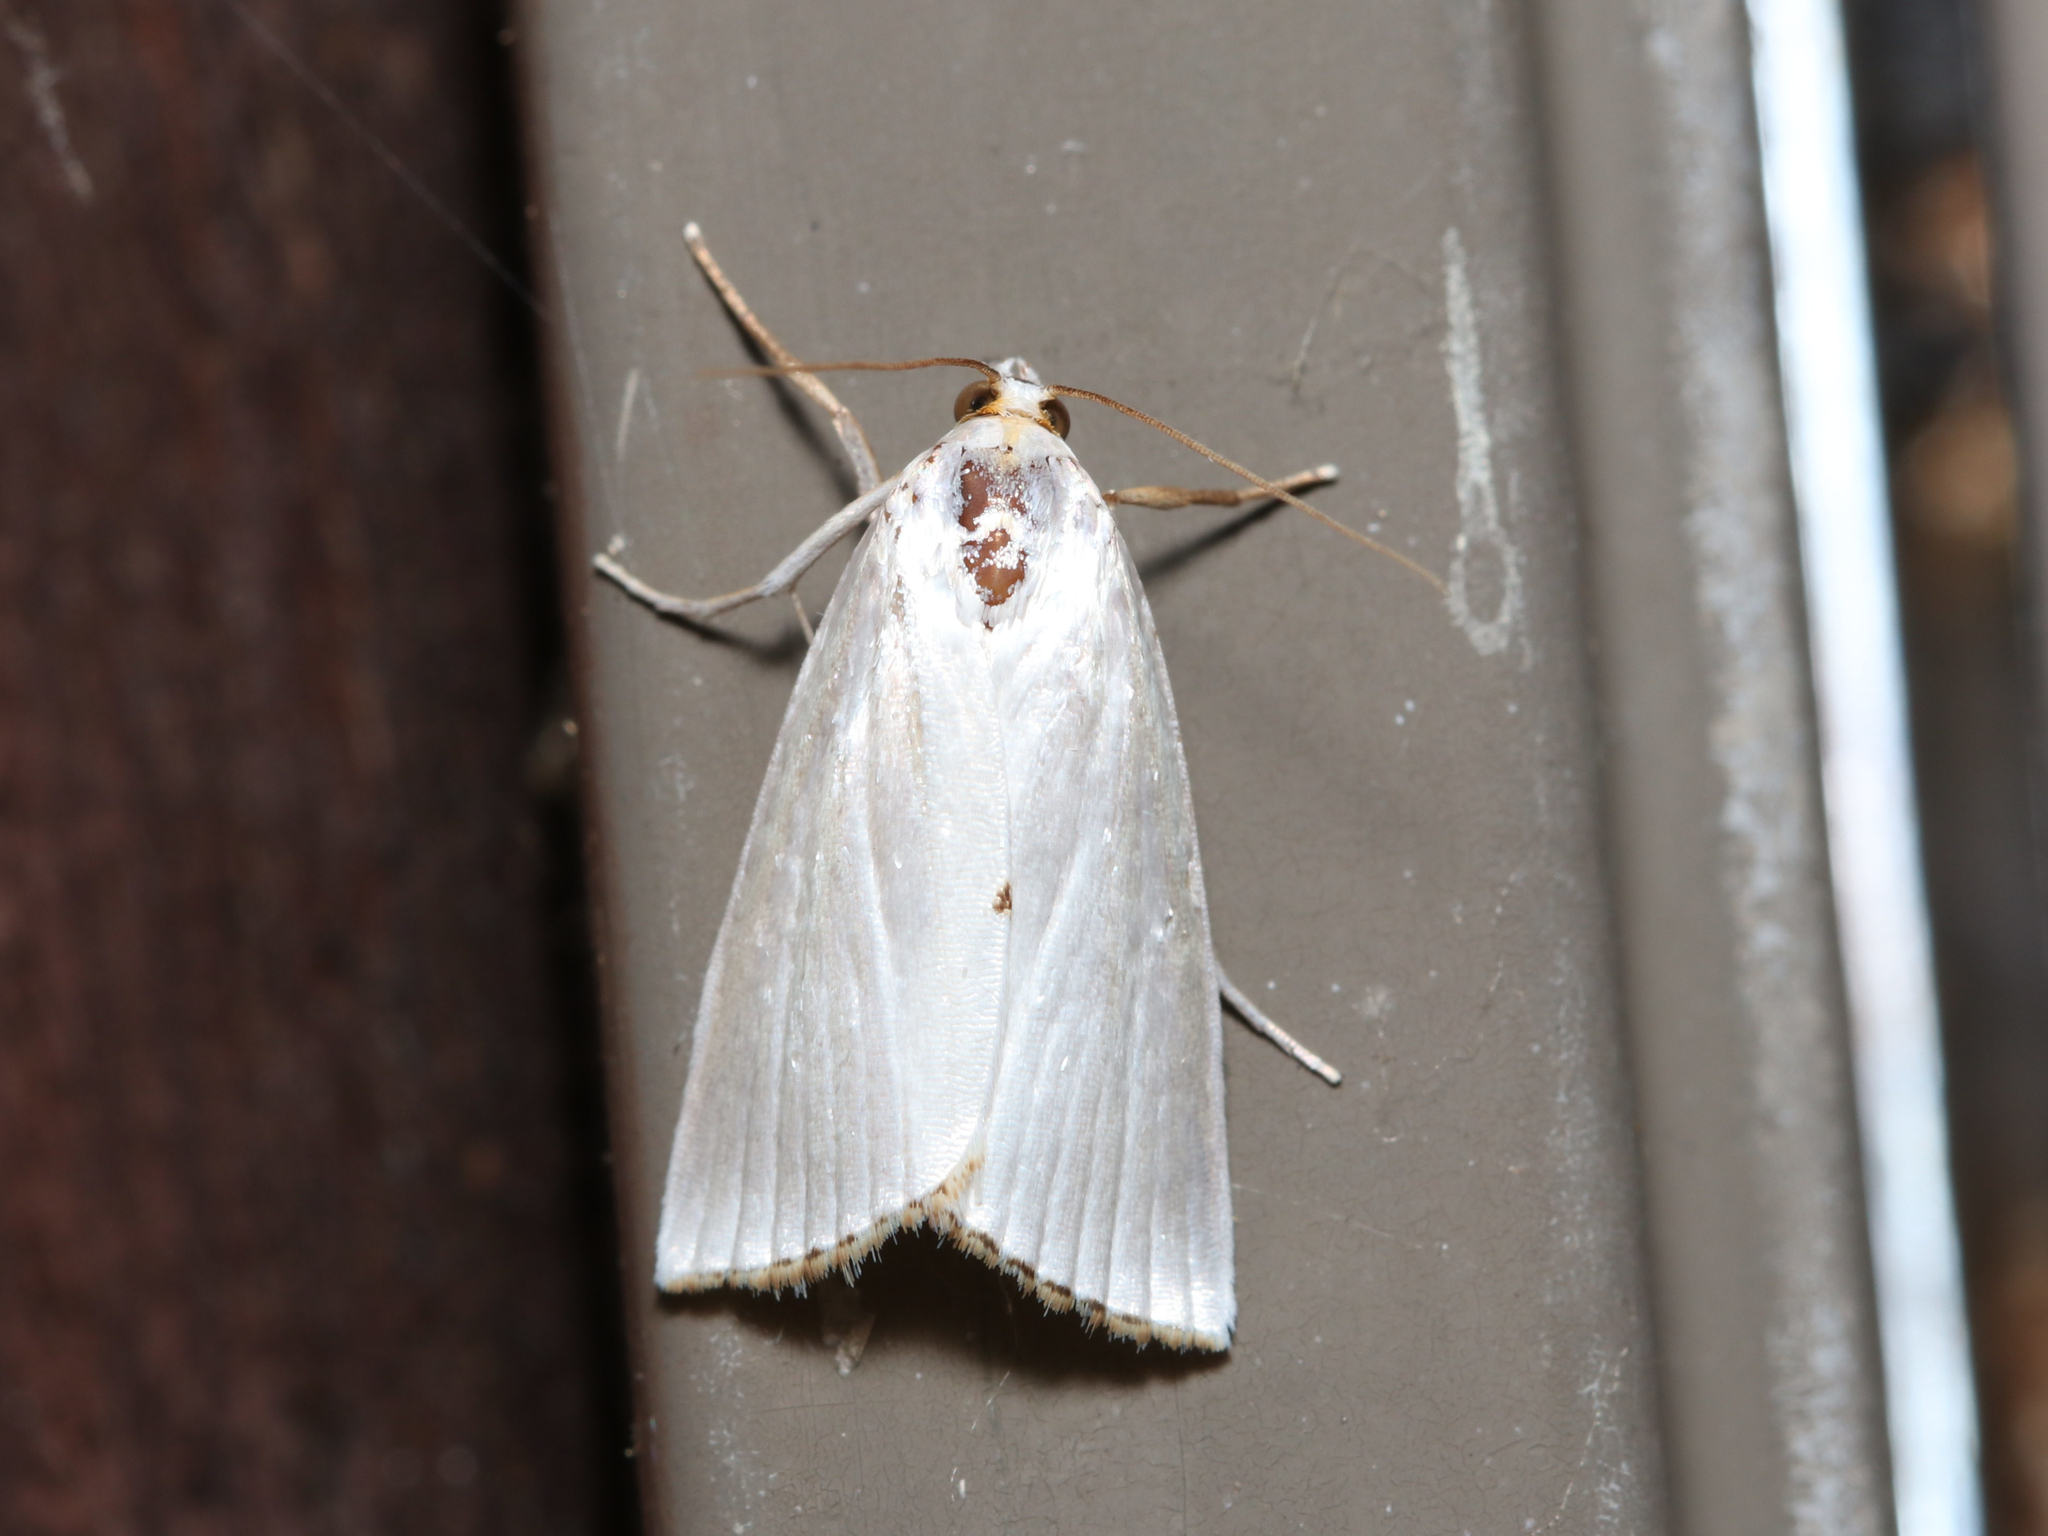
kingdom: Animalia
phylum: Arthropoda
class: Insecta
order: Lepidoptera
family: Crambidae
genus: Argyria
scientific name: Argyria nivalis
